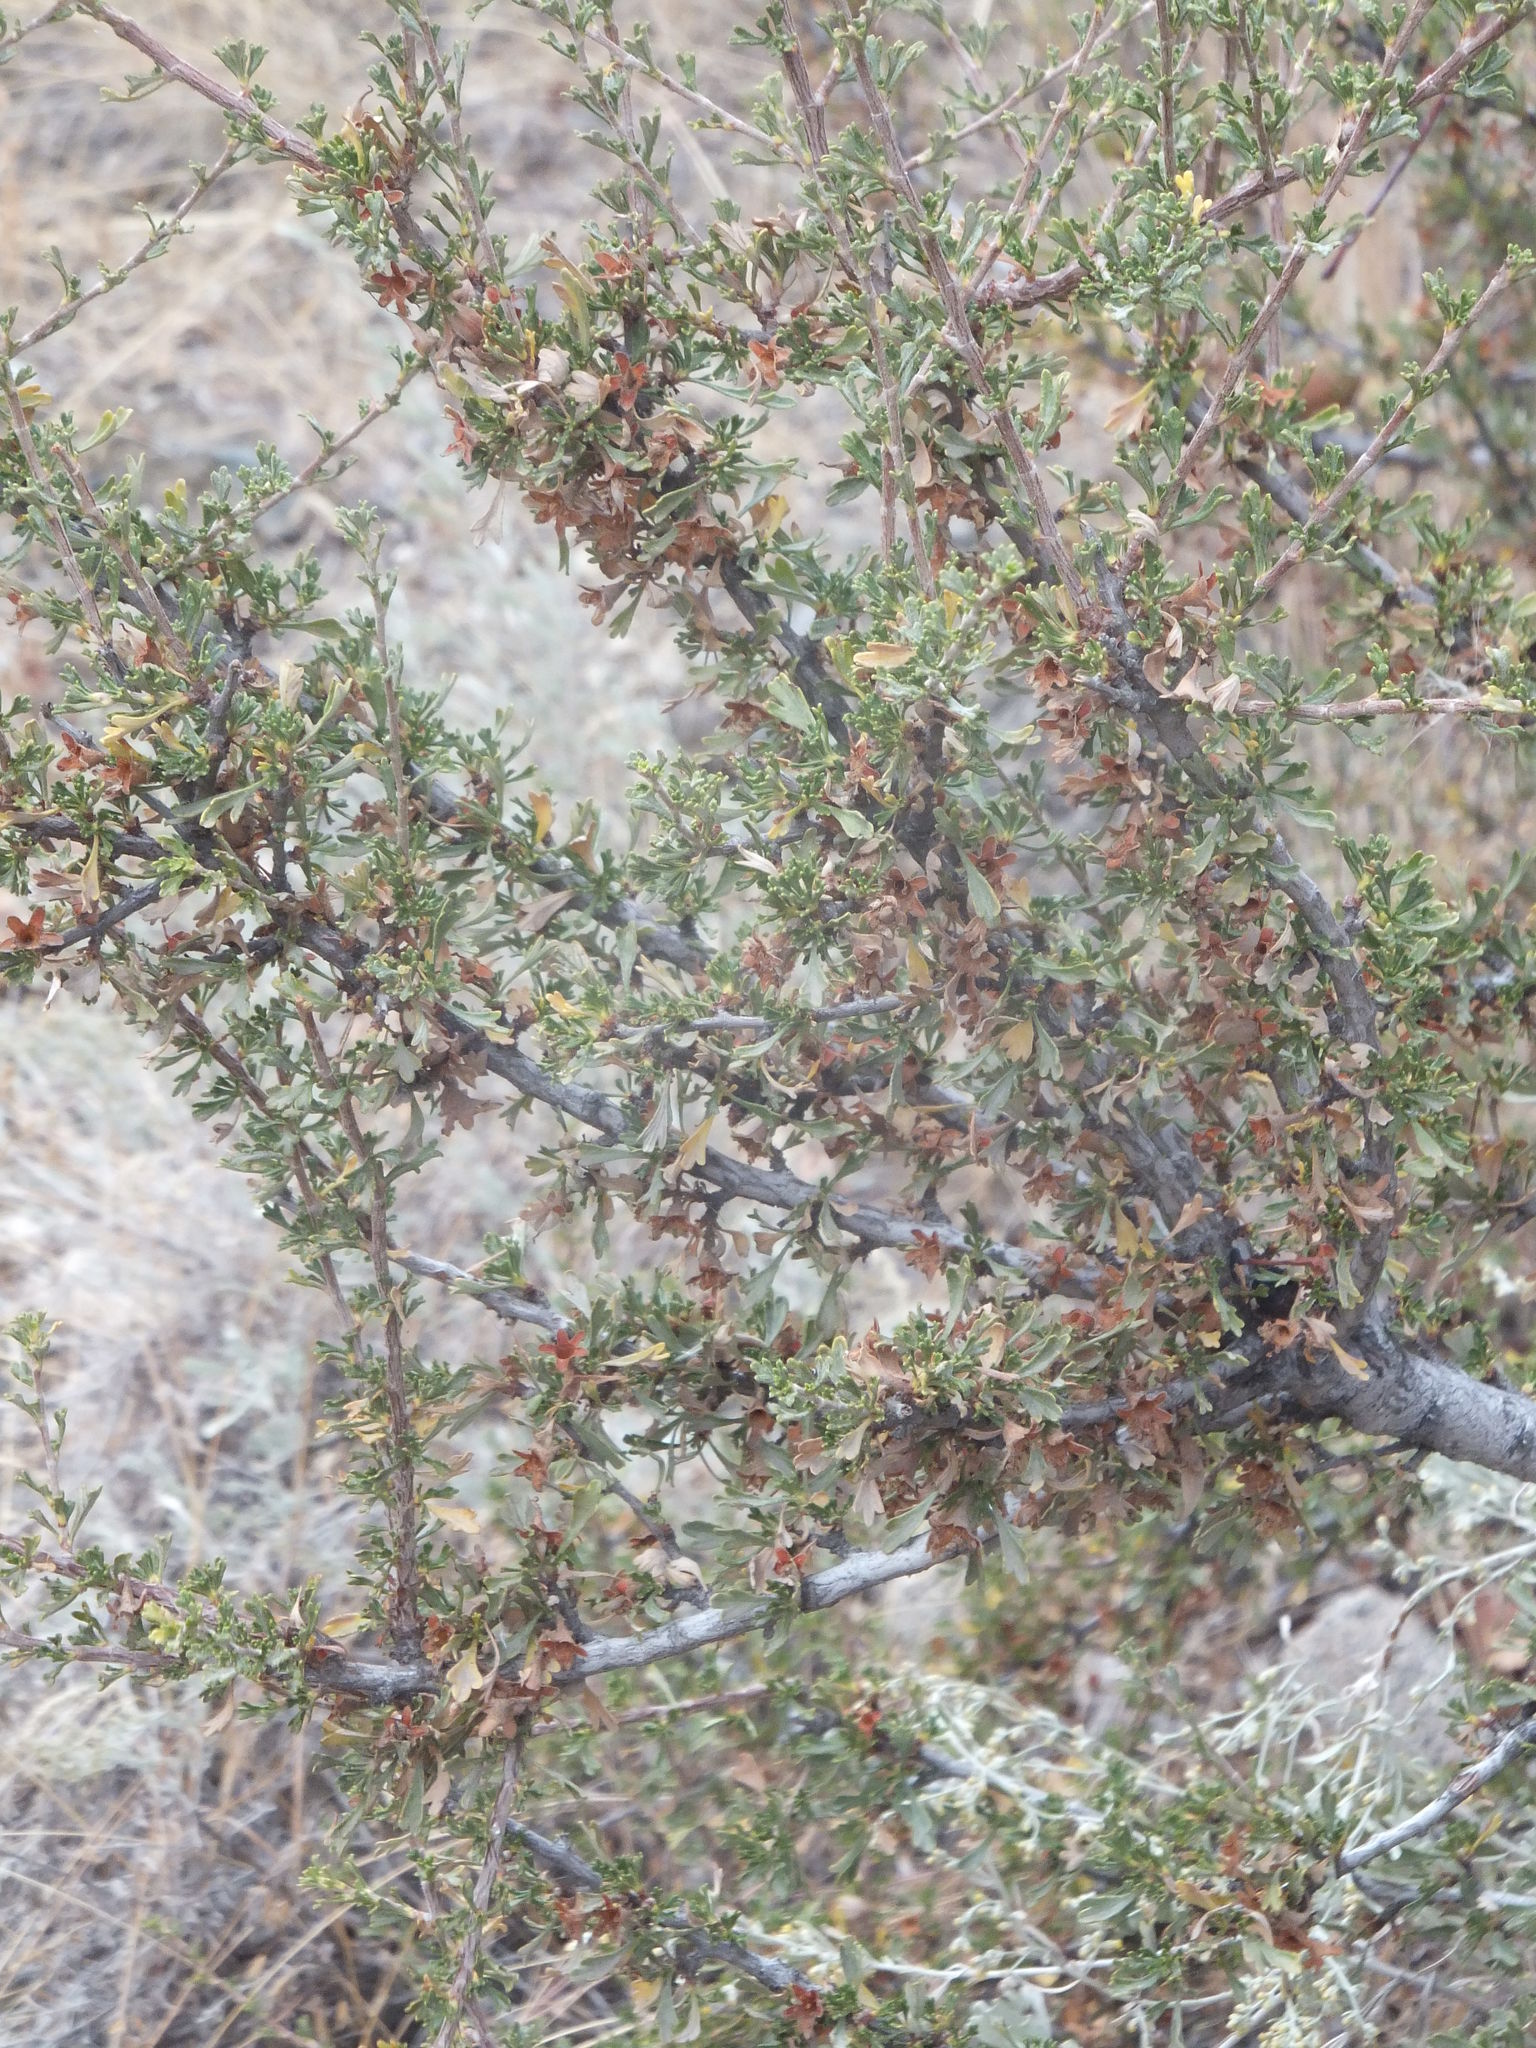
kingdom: Plantae
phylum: Tracheophyta
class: Magnoliopsida
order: Rosales
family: Rosaceae
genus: Purshia
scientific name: Purshia tridentata
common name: Antelope bitterbrush
